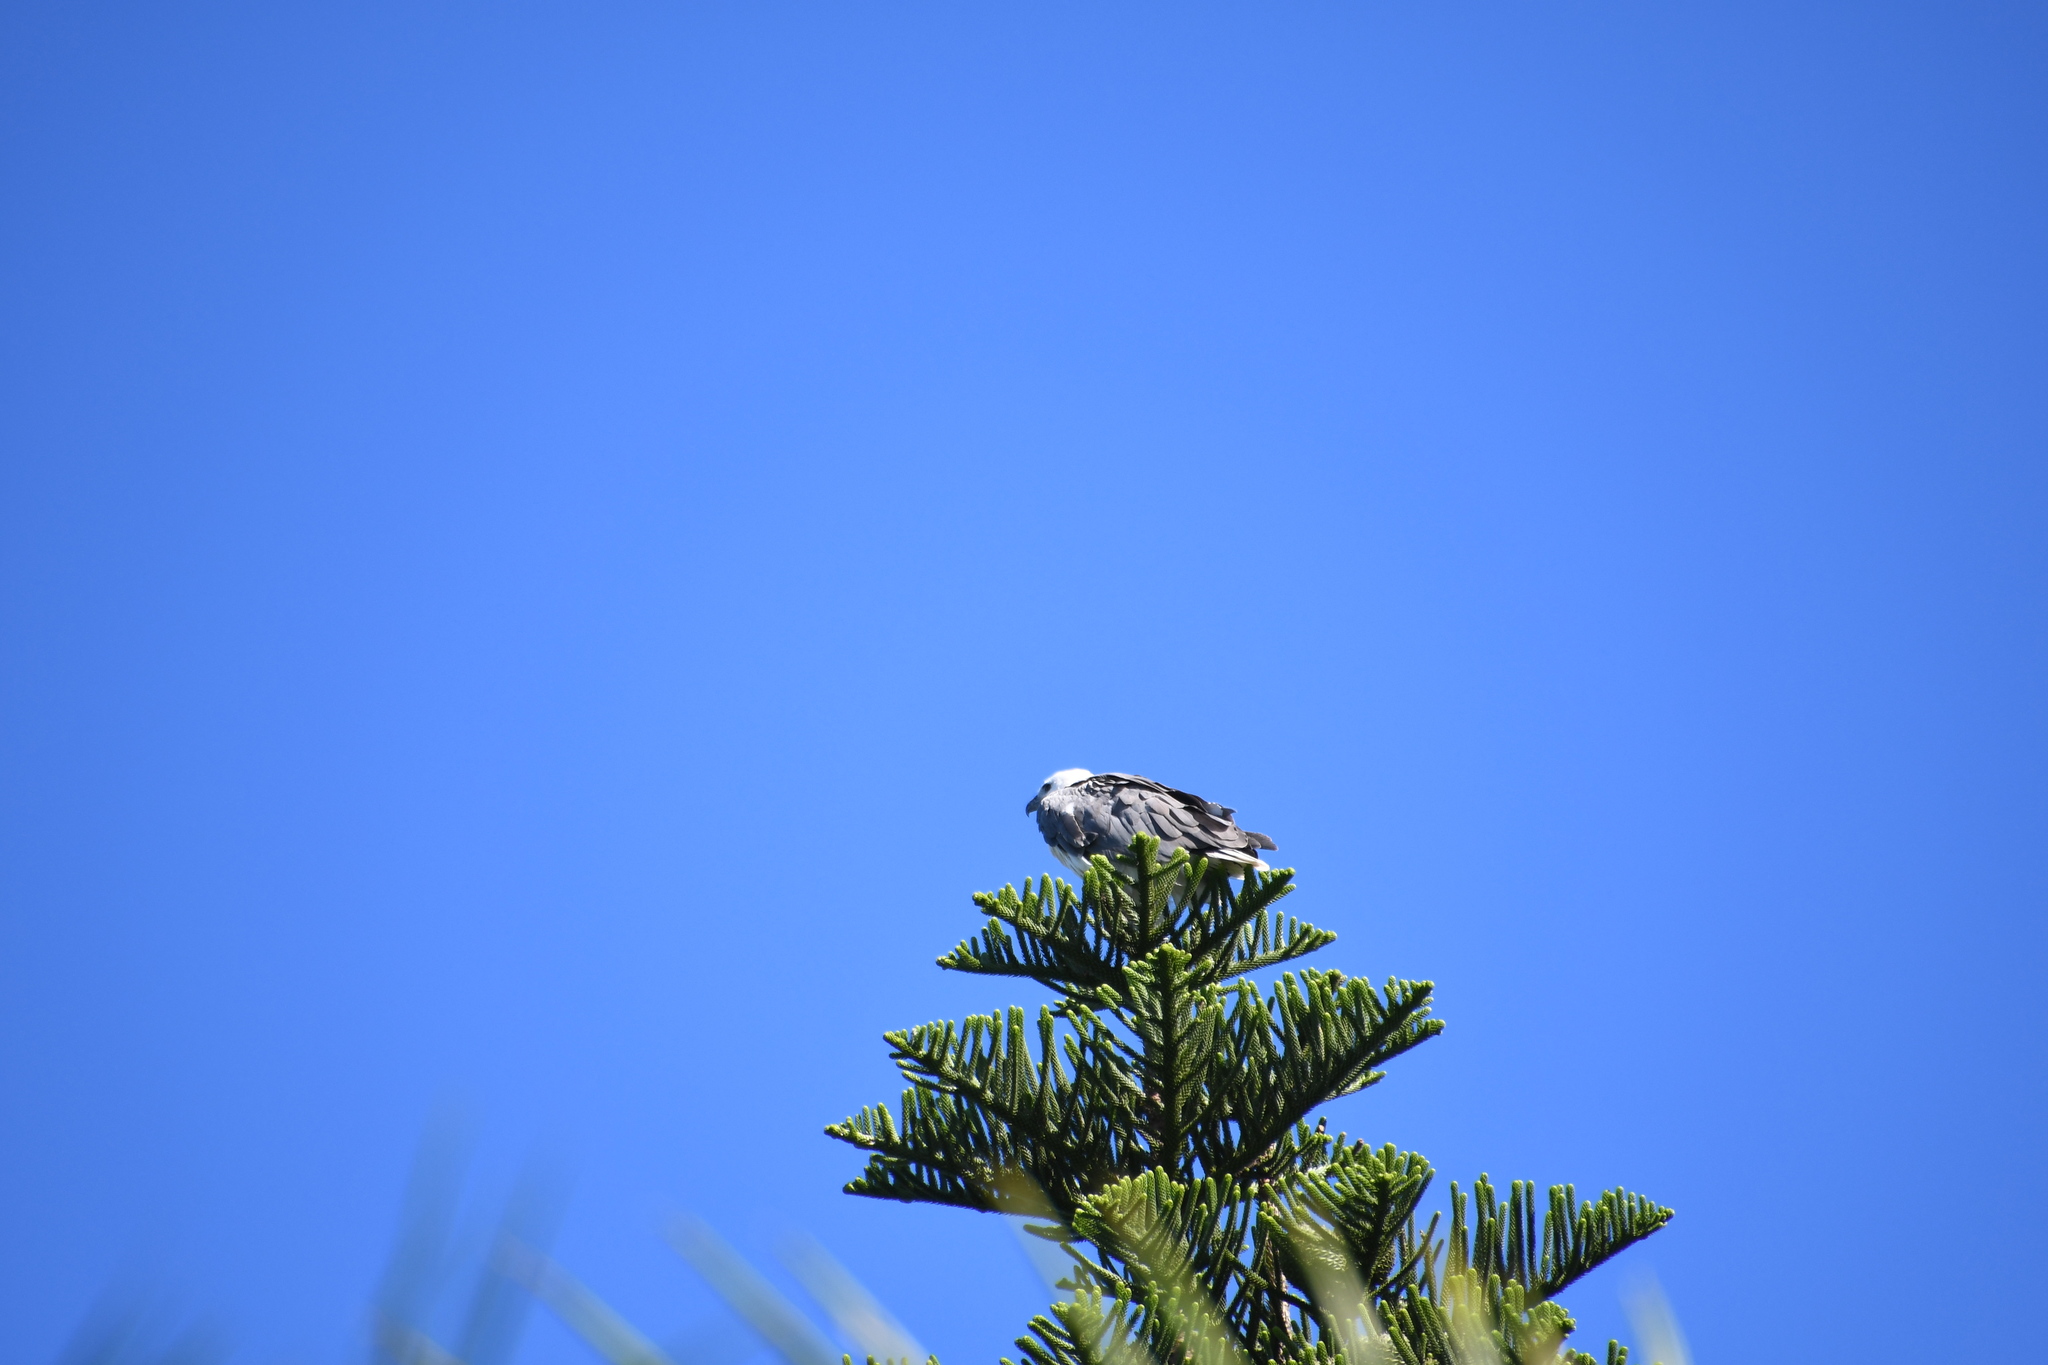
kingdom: Animalia
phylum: Chordata
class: Aves
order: Accipitriformes
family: Accipitridae
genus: Haliaeetus
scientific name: Haliaeetus leucogaster
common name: White-bellied sea eagle
